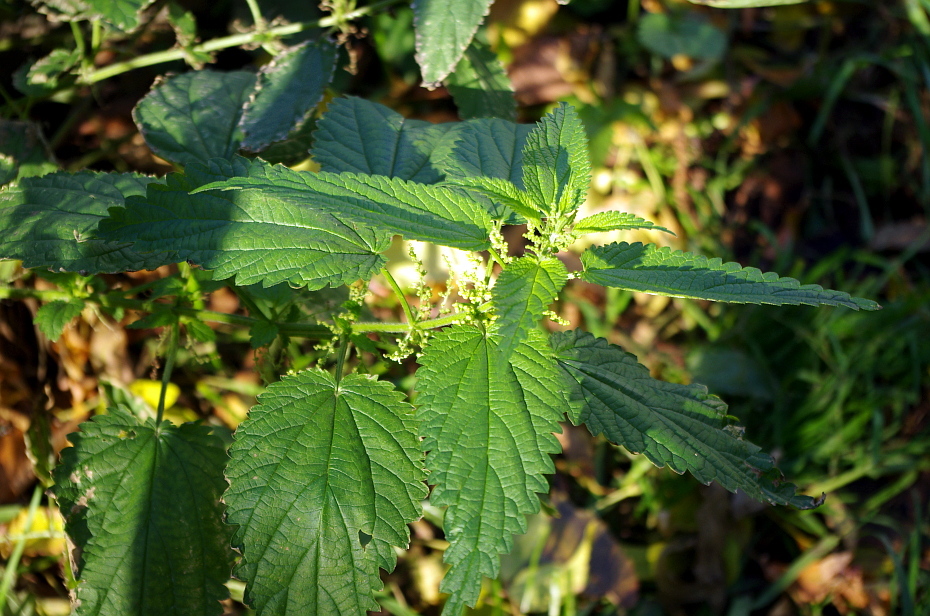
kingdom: Plantae
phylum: Tracheophyta
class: Magnoliopsida
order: Rosales
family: Urticaceae
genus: Urtica
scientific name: Urtica dioica
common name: Common nettle
